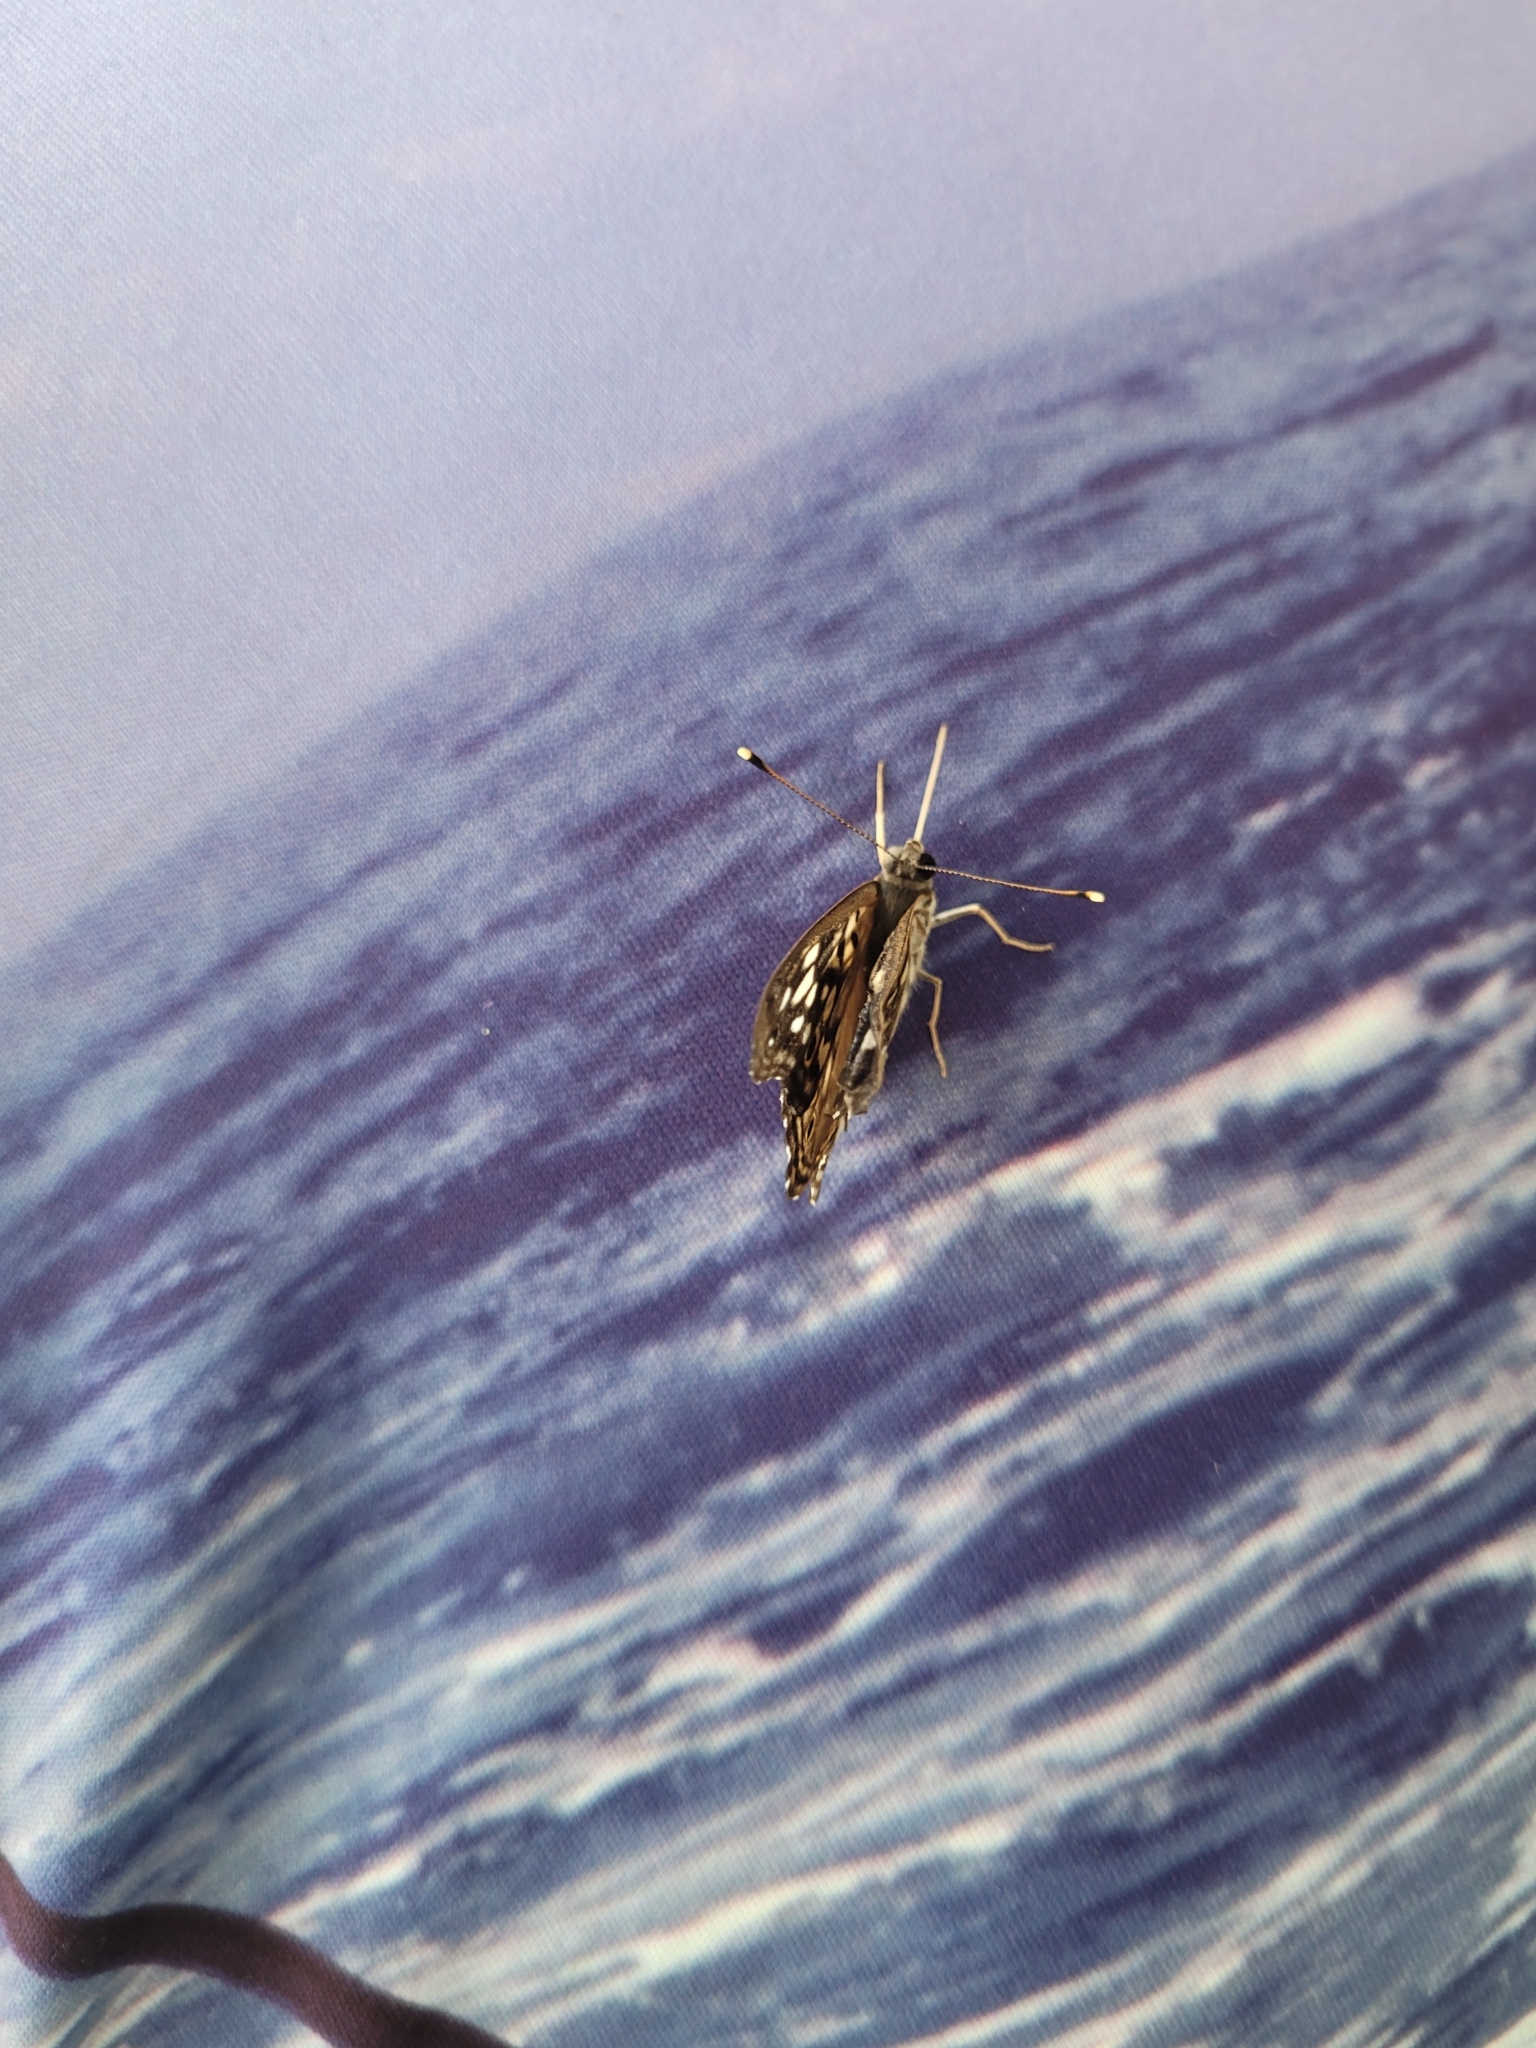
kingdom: Animalia
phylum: Arthropoda
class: Insecta
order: Lepidoptera
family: Nymphalidae
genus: Asterocampa
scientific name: Asterocampa celtis
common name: Hackberry emperor
